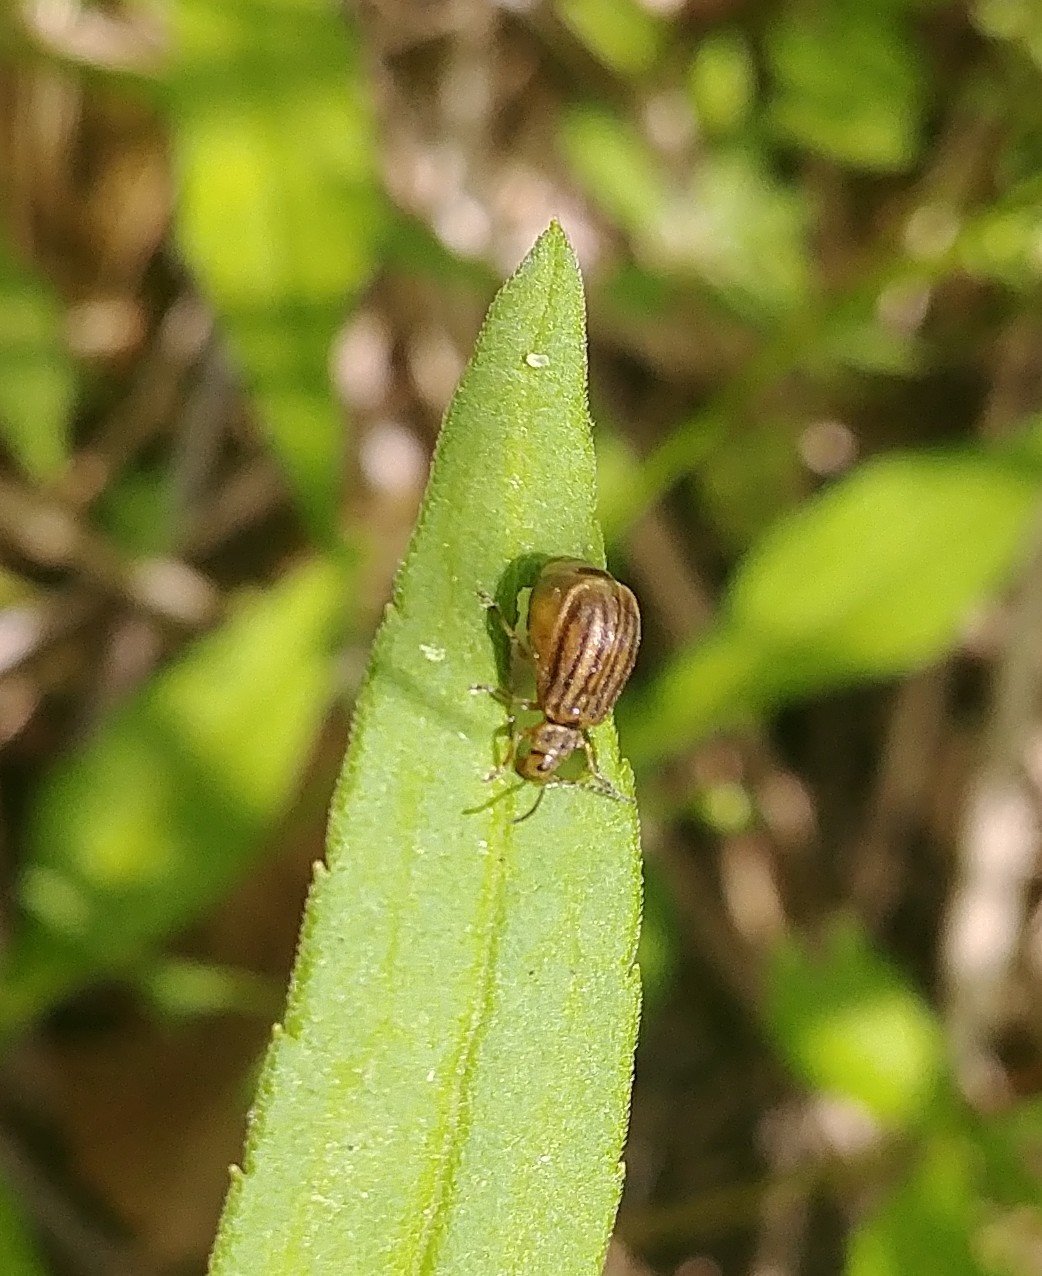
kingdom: Animalia
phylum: Arthropoda
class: Insecta
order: Coleoptera
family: Chrysomelidae
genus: Ophraella
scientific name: Ophraella conferta
